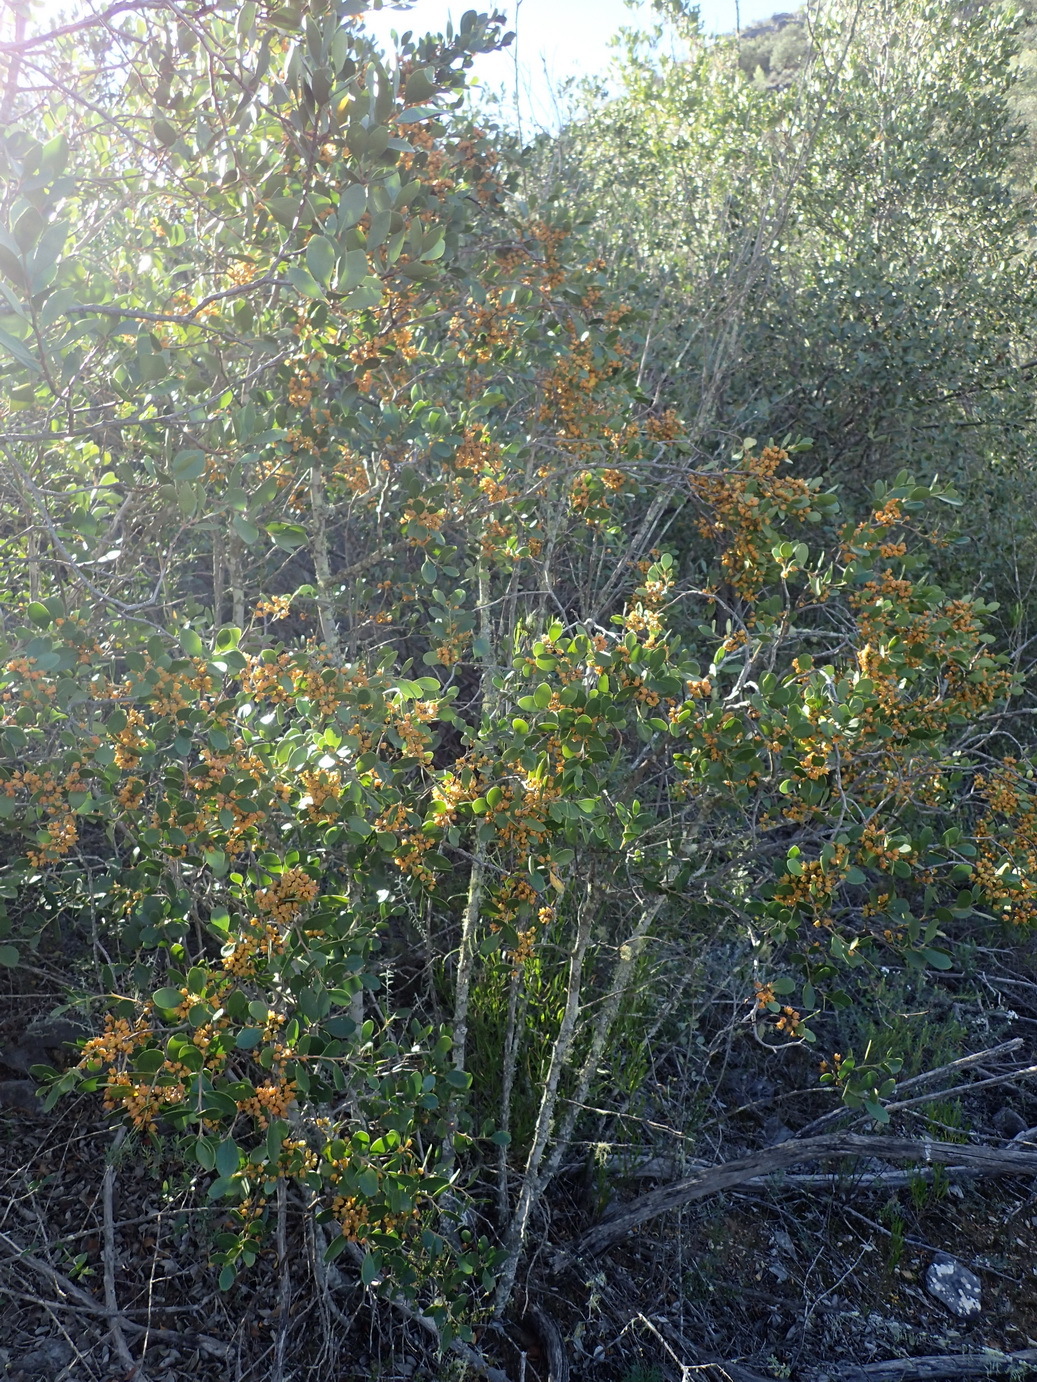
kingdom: Plantae
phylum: Tracheophyta
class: Magnoliopsida
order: Celastrales
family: Celastraceae
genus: Pterocelastrus
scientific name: Pterocelastrus tricuspidatus
